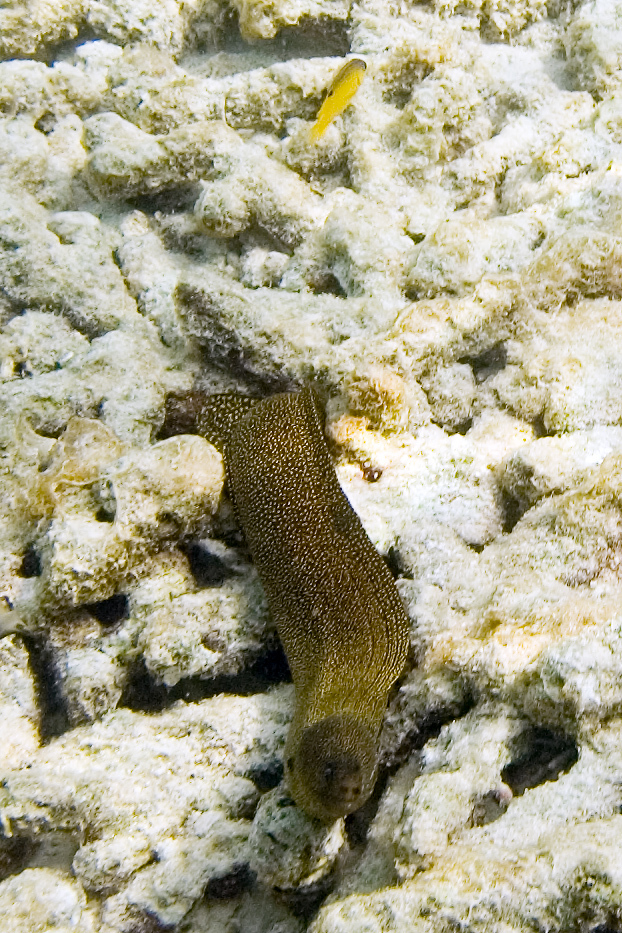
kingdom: Animalia
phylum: Chordata
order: Anguilliformes
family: Muraenidae
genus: Gymnothorax
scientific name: Gymnothorax miliaris
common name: Goldentail moray
